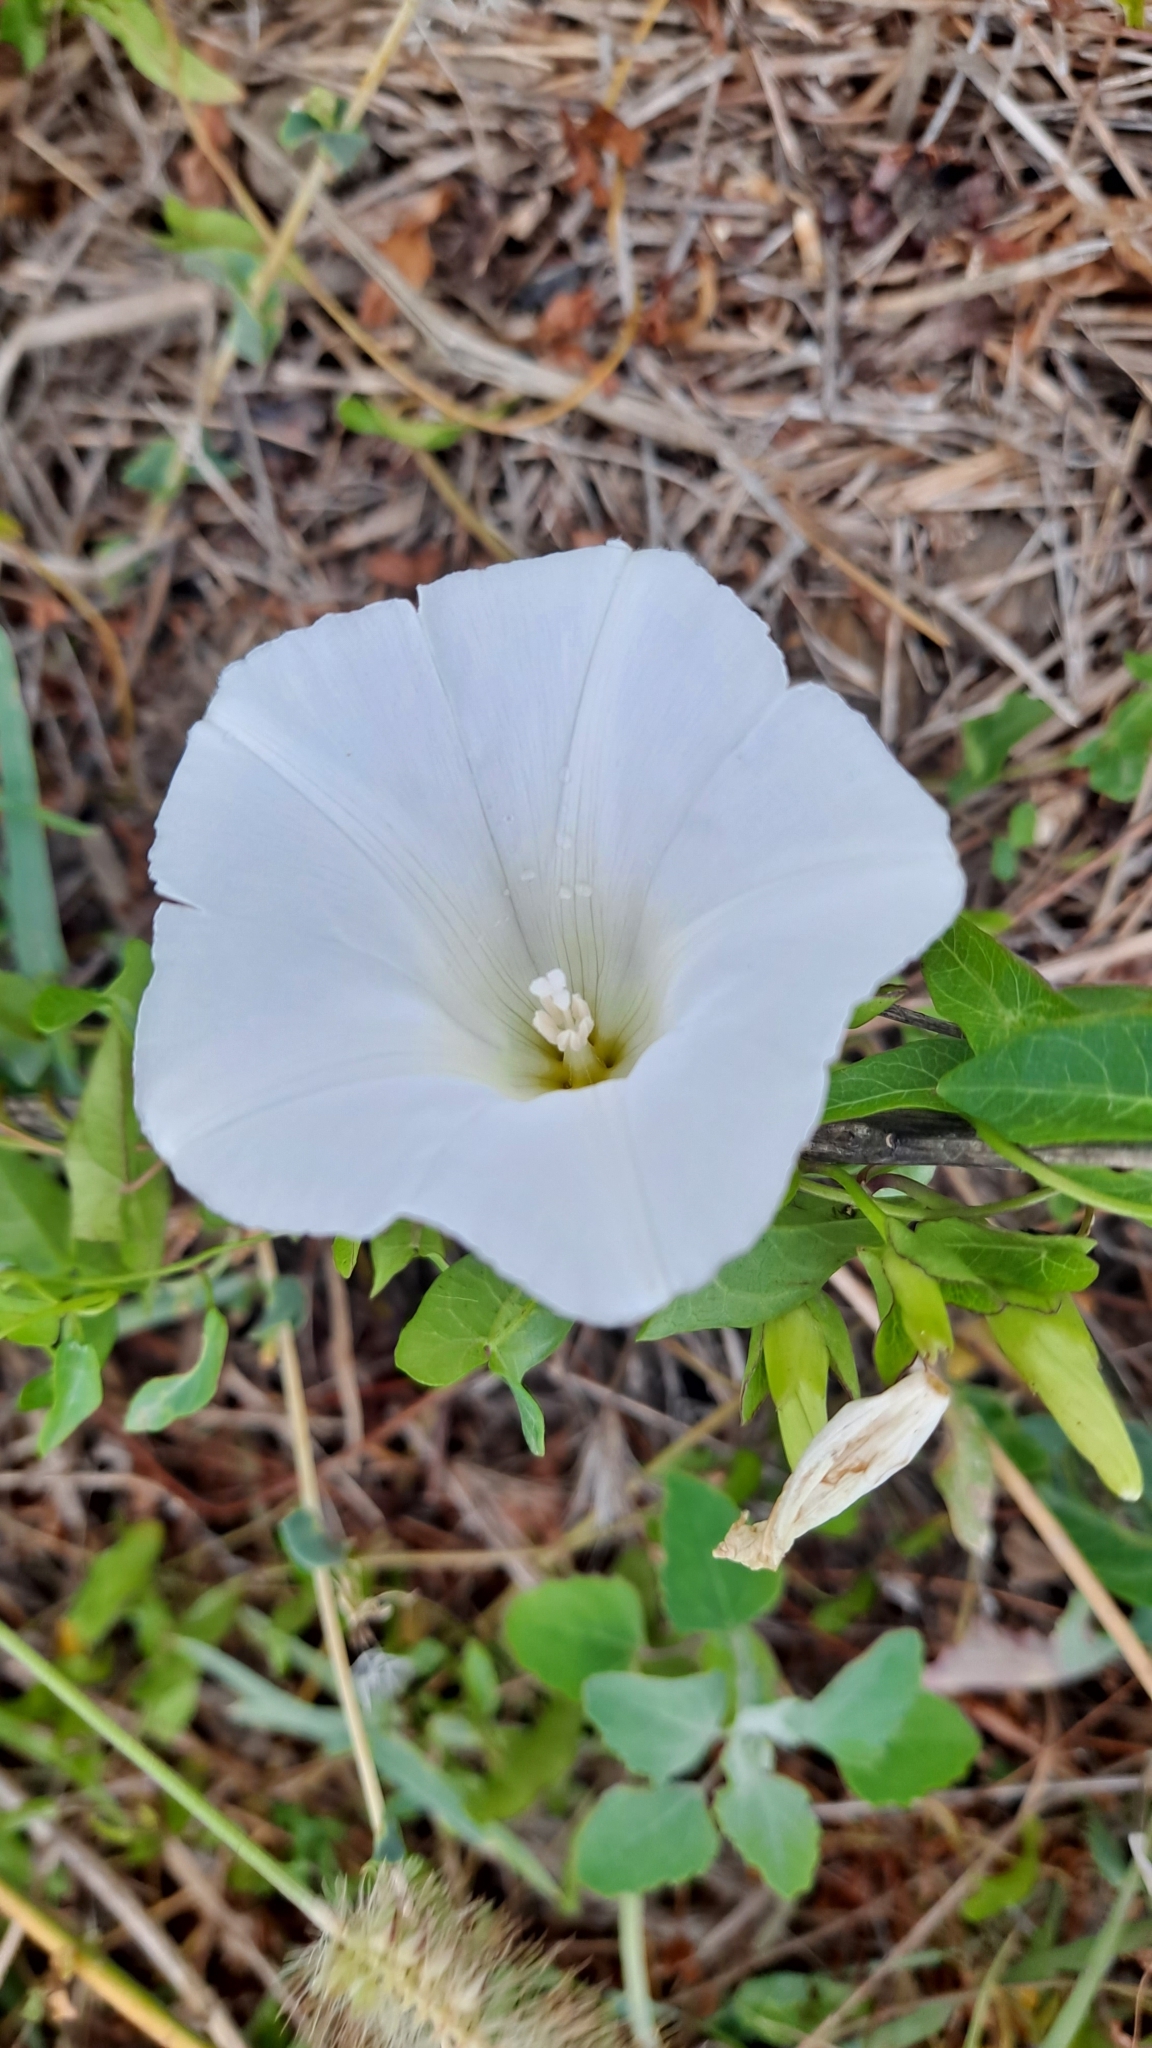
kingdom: Plantae
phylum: Tracheophyta
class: Magnoliopsida
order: Solanales
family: Convolvulaceae
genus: Calystegia
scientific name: Calystegia sepium
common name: Hedge bindweed
